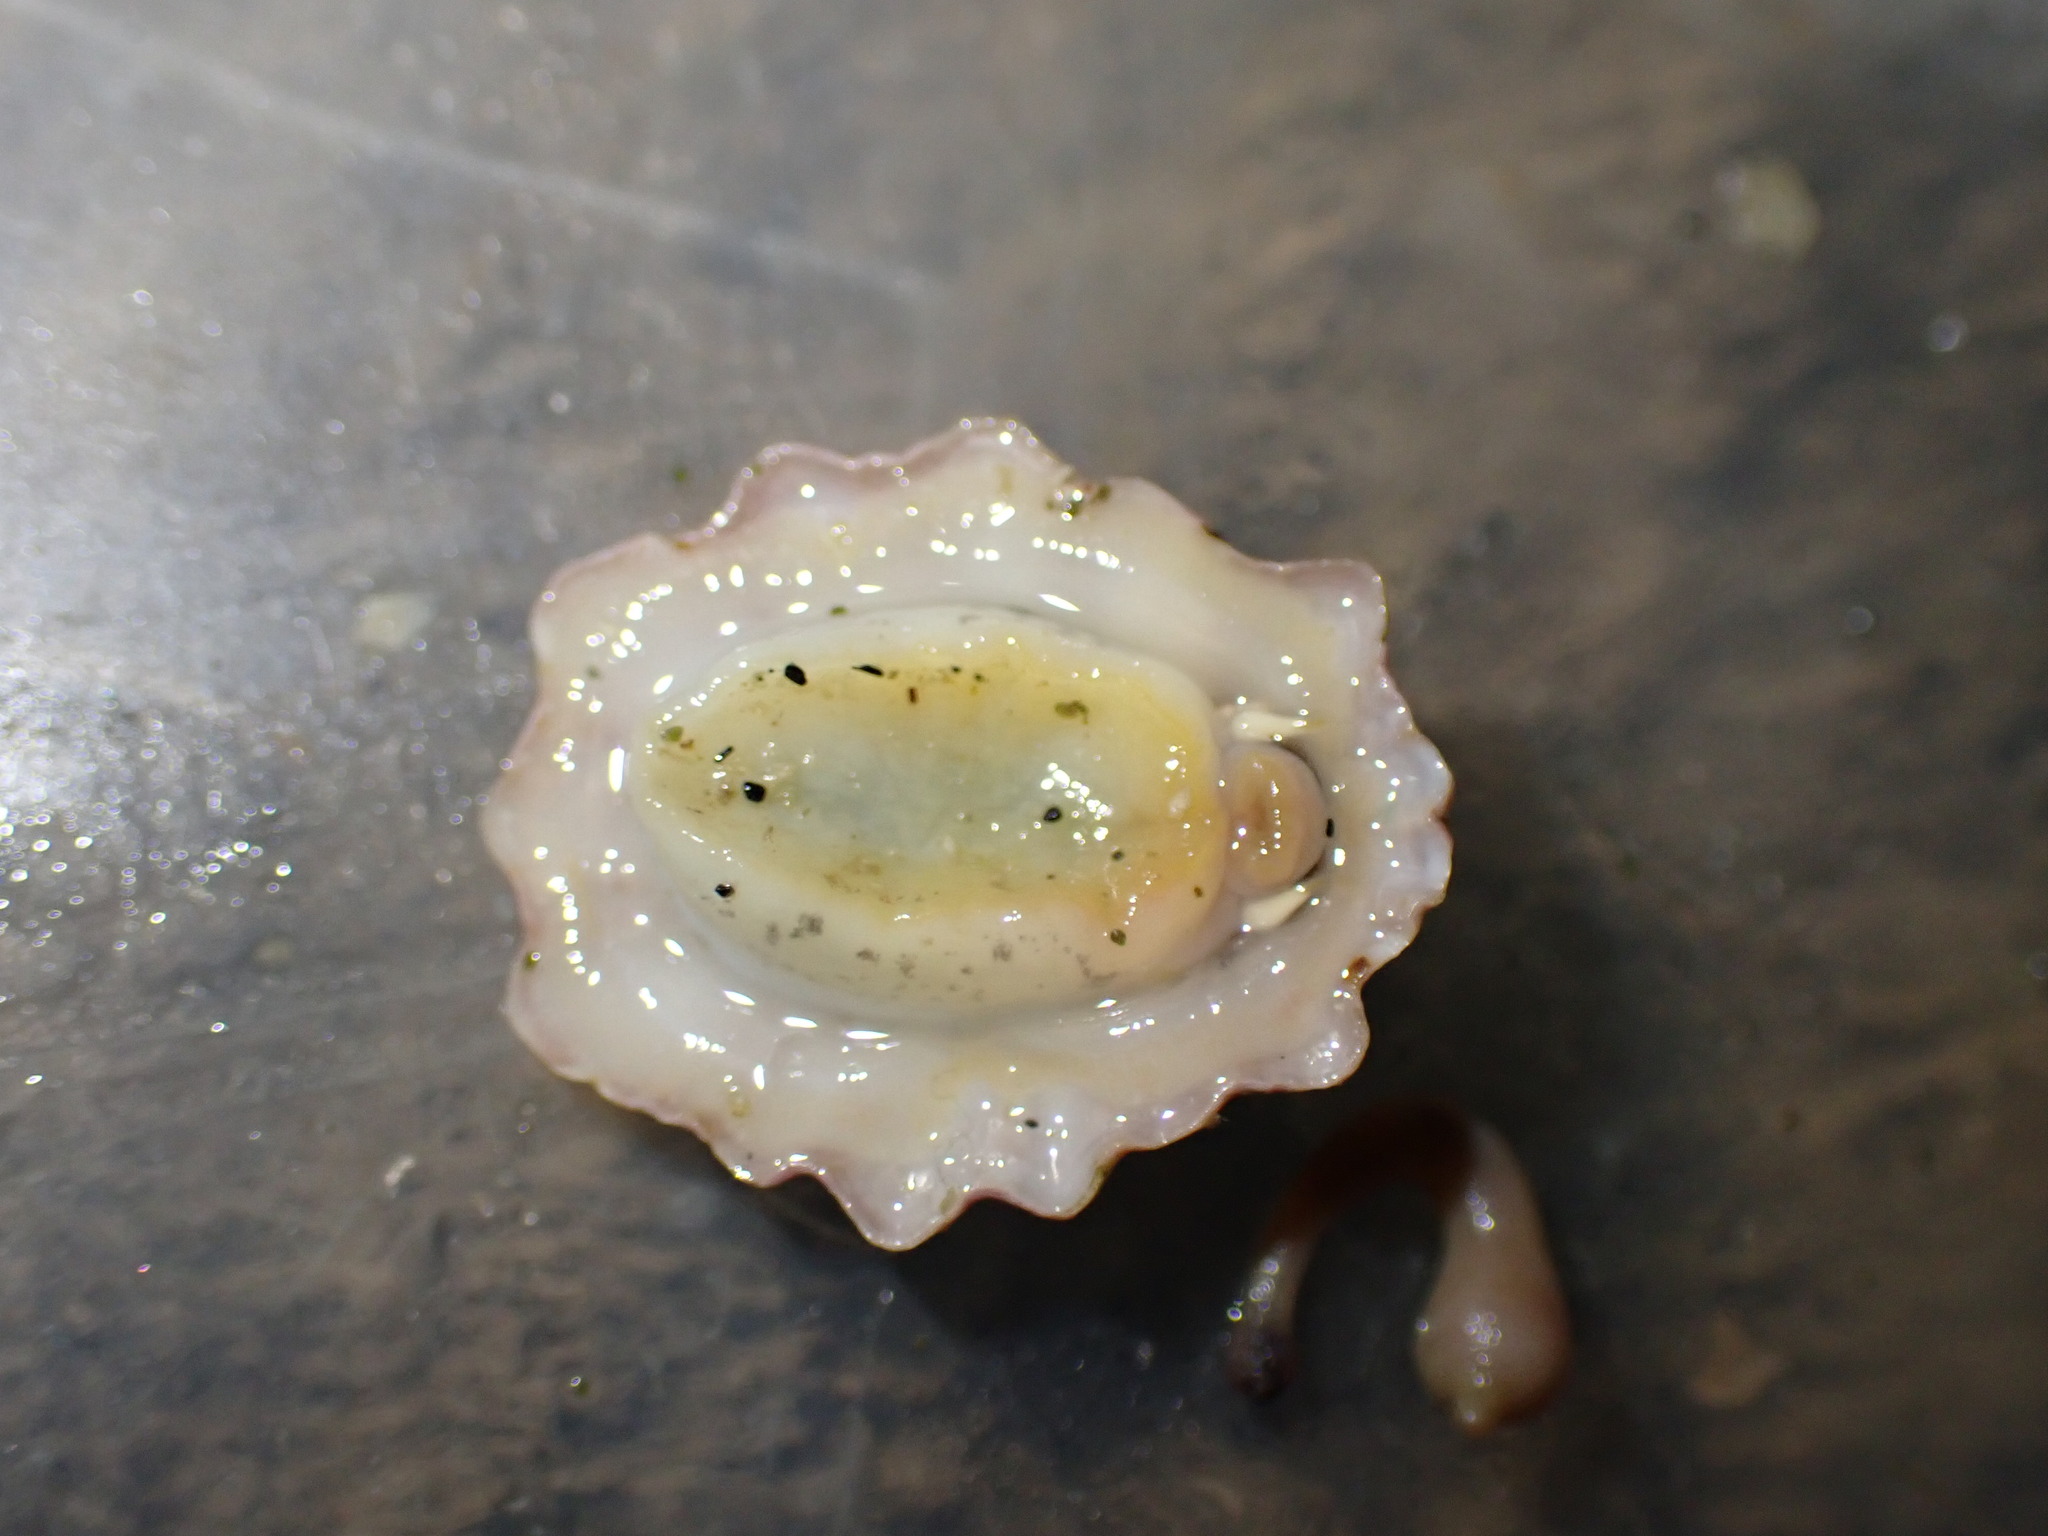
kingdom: Animalia
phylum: Mollusca
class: Gastropoda
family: Lottiidae
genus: Patelloida
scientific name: Patelloida corticata
